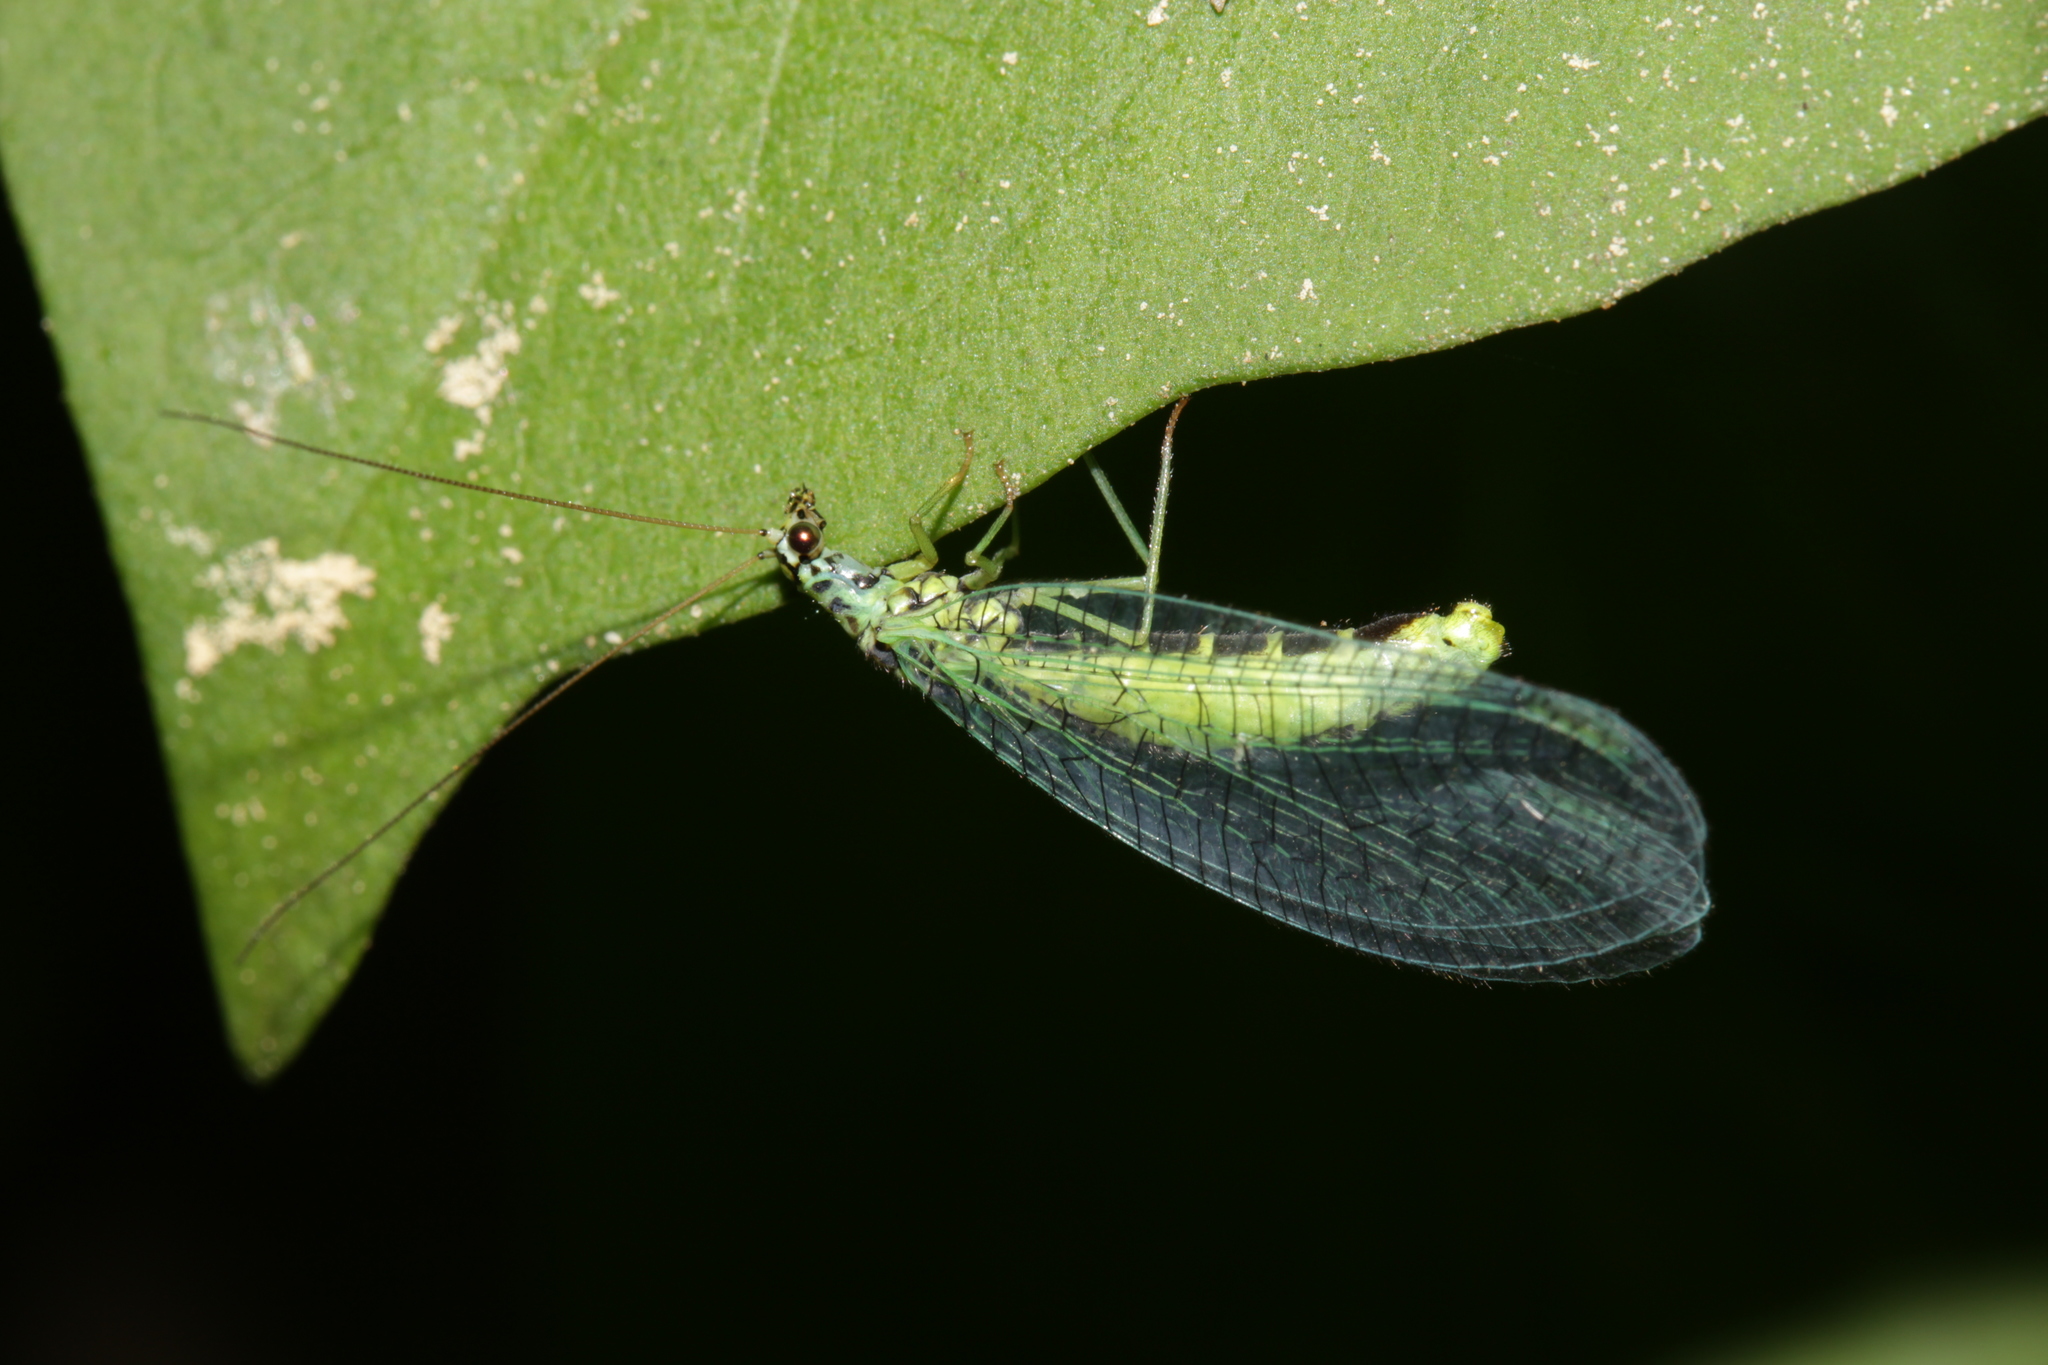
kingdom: Animalia
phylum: Arthropoda
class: Insecta
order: Neuroptera
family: Chrysopidae
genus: Chrysopa
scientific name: Chrysopa perla
